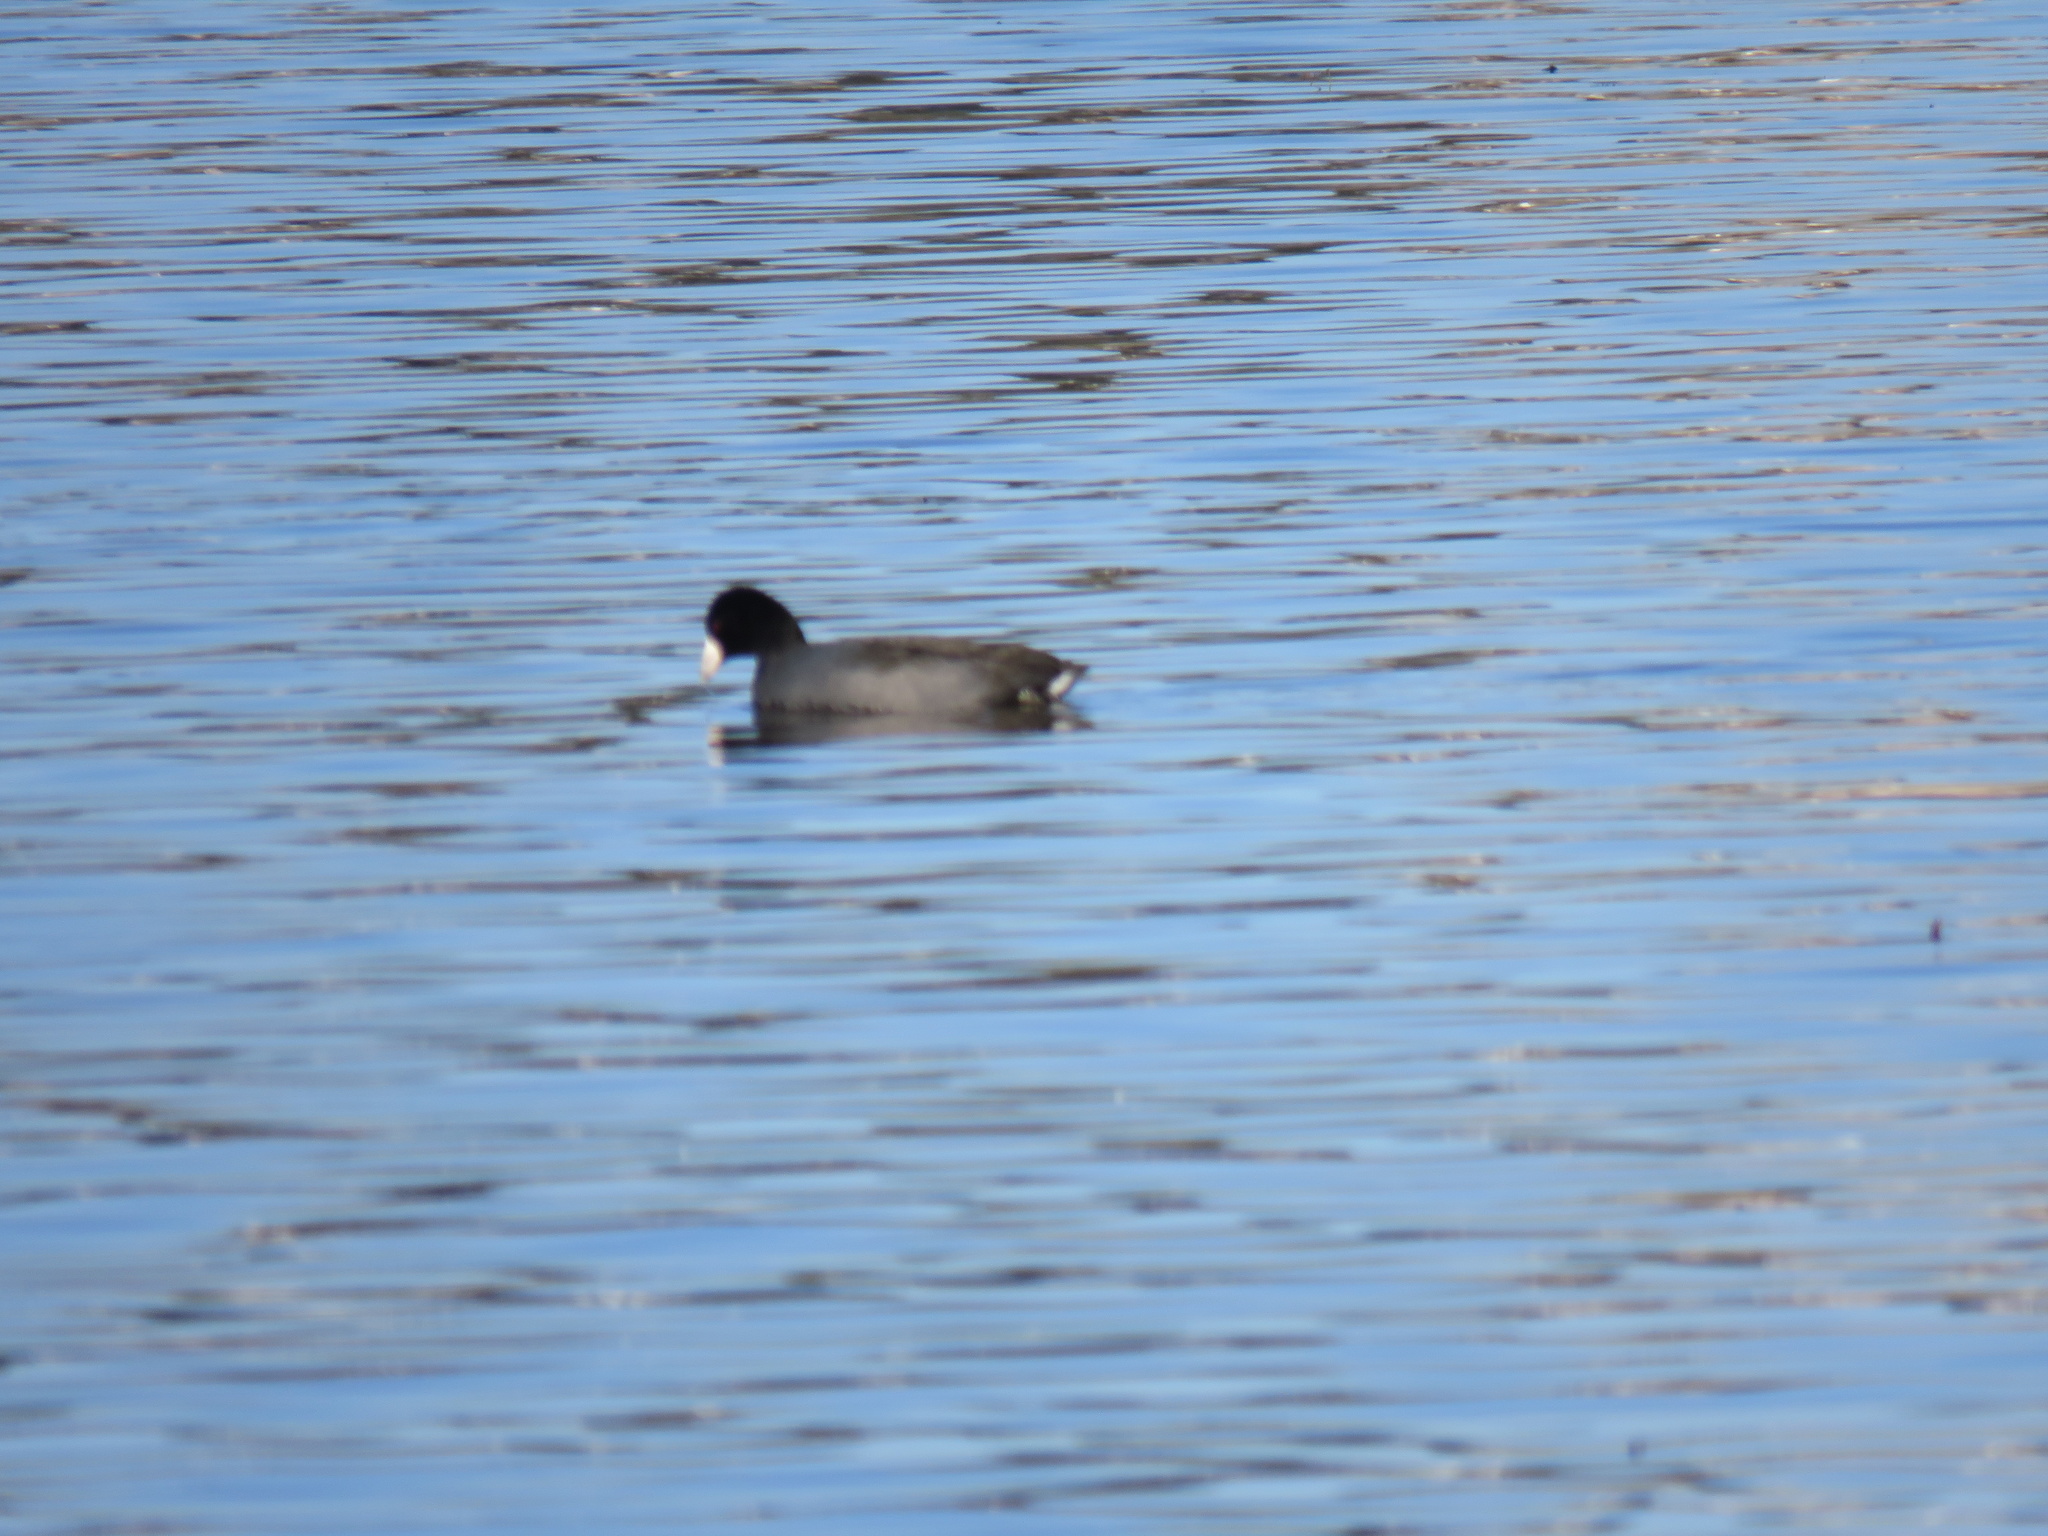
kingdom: Animalia
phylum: Chordata
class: Aves
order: Gruiformes
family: Rallidae
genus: Fulica
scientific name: Fulica americana
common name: American coot
